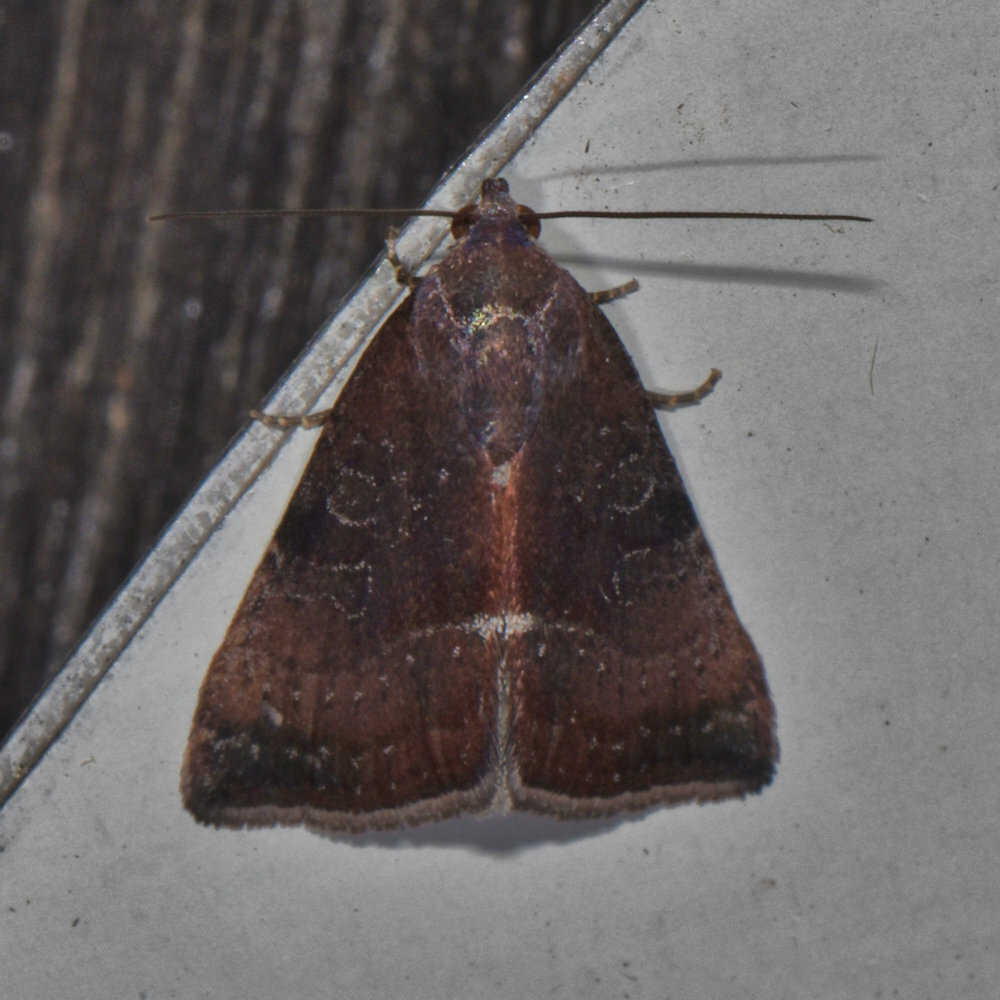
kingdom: Animalia
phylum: Arthropoda
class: Insecta
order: Lepidoptera
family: Noctuidae
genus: Galgula
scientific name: Galgula partita
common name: Wedgeling
